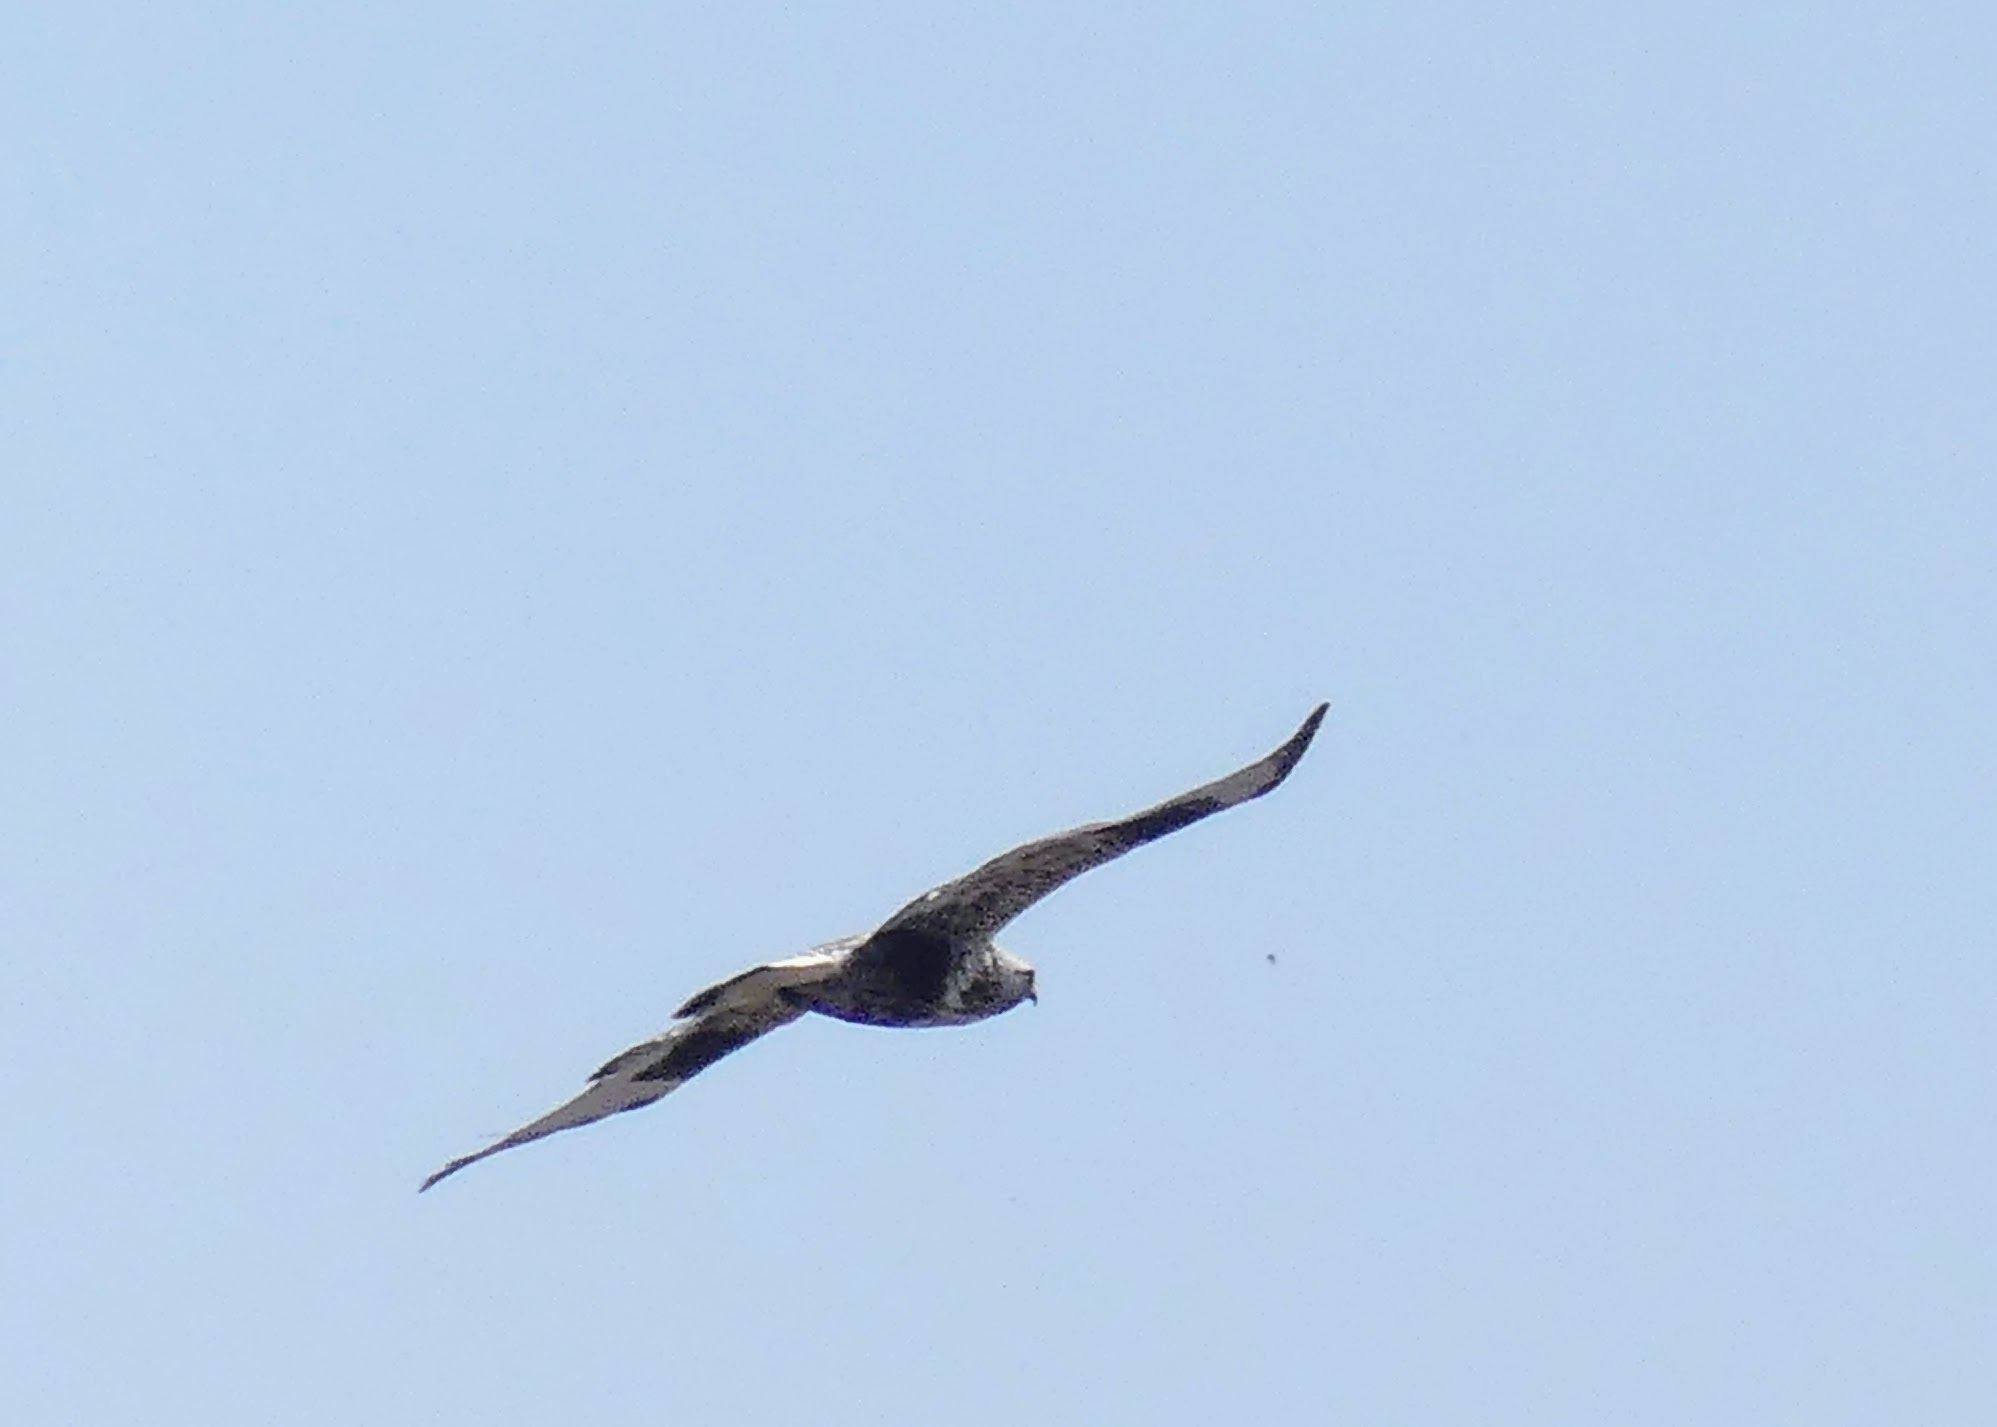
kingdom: Animalia
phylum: Chordata
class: Aves
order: Accipitriformes
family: Accipitridae
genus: Buteo
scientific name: Buteo lagopus
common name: Rough-legged buzzard
